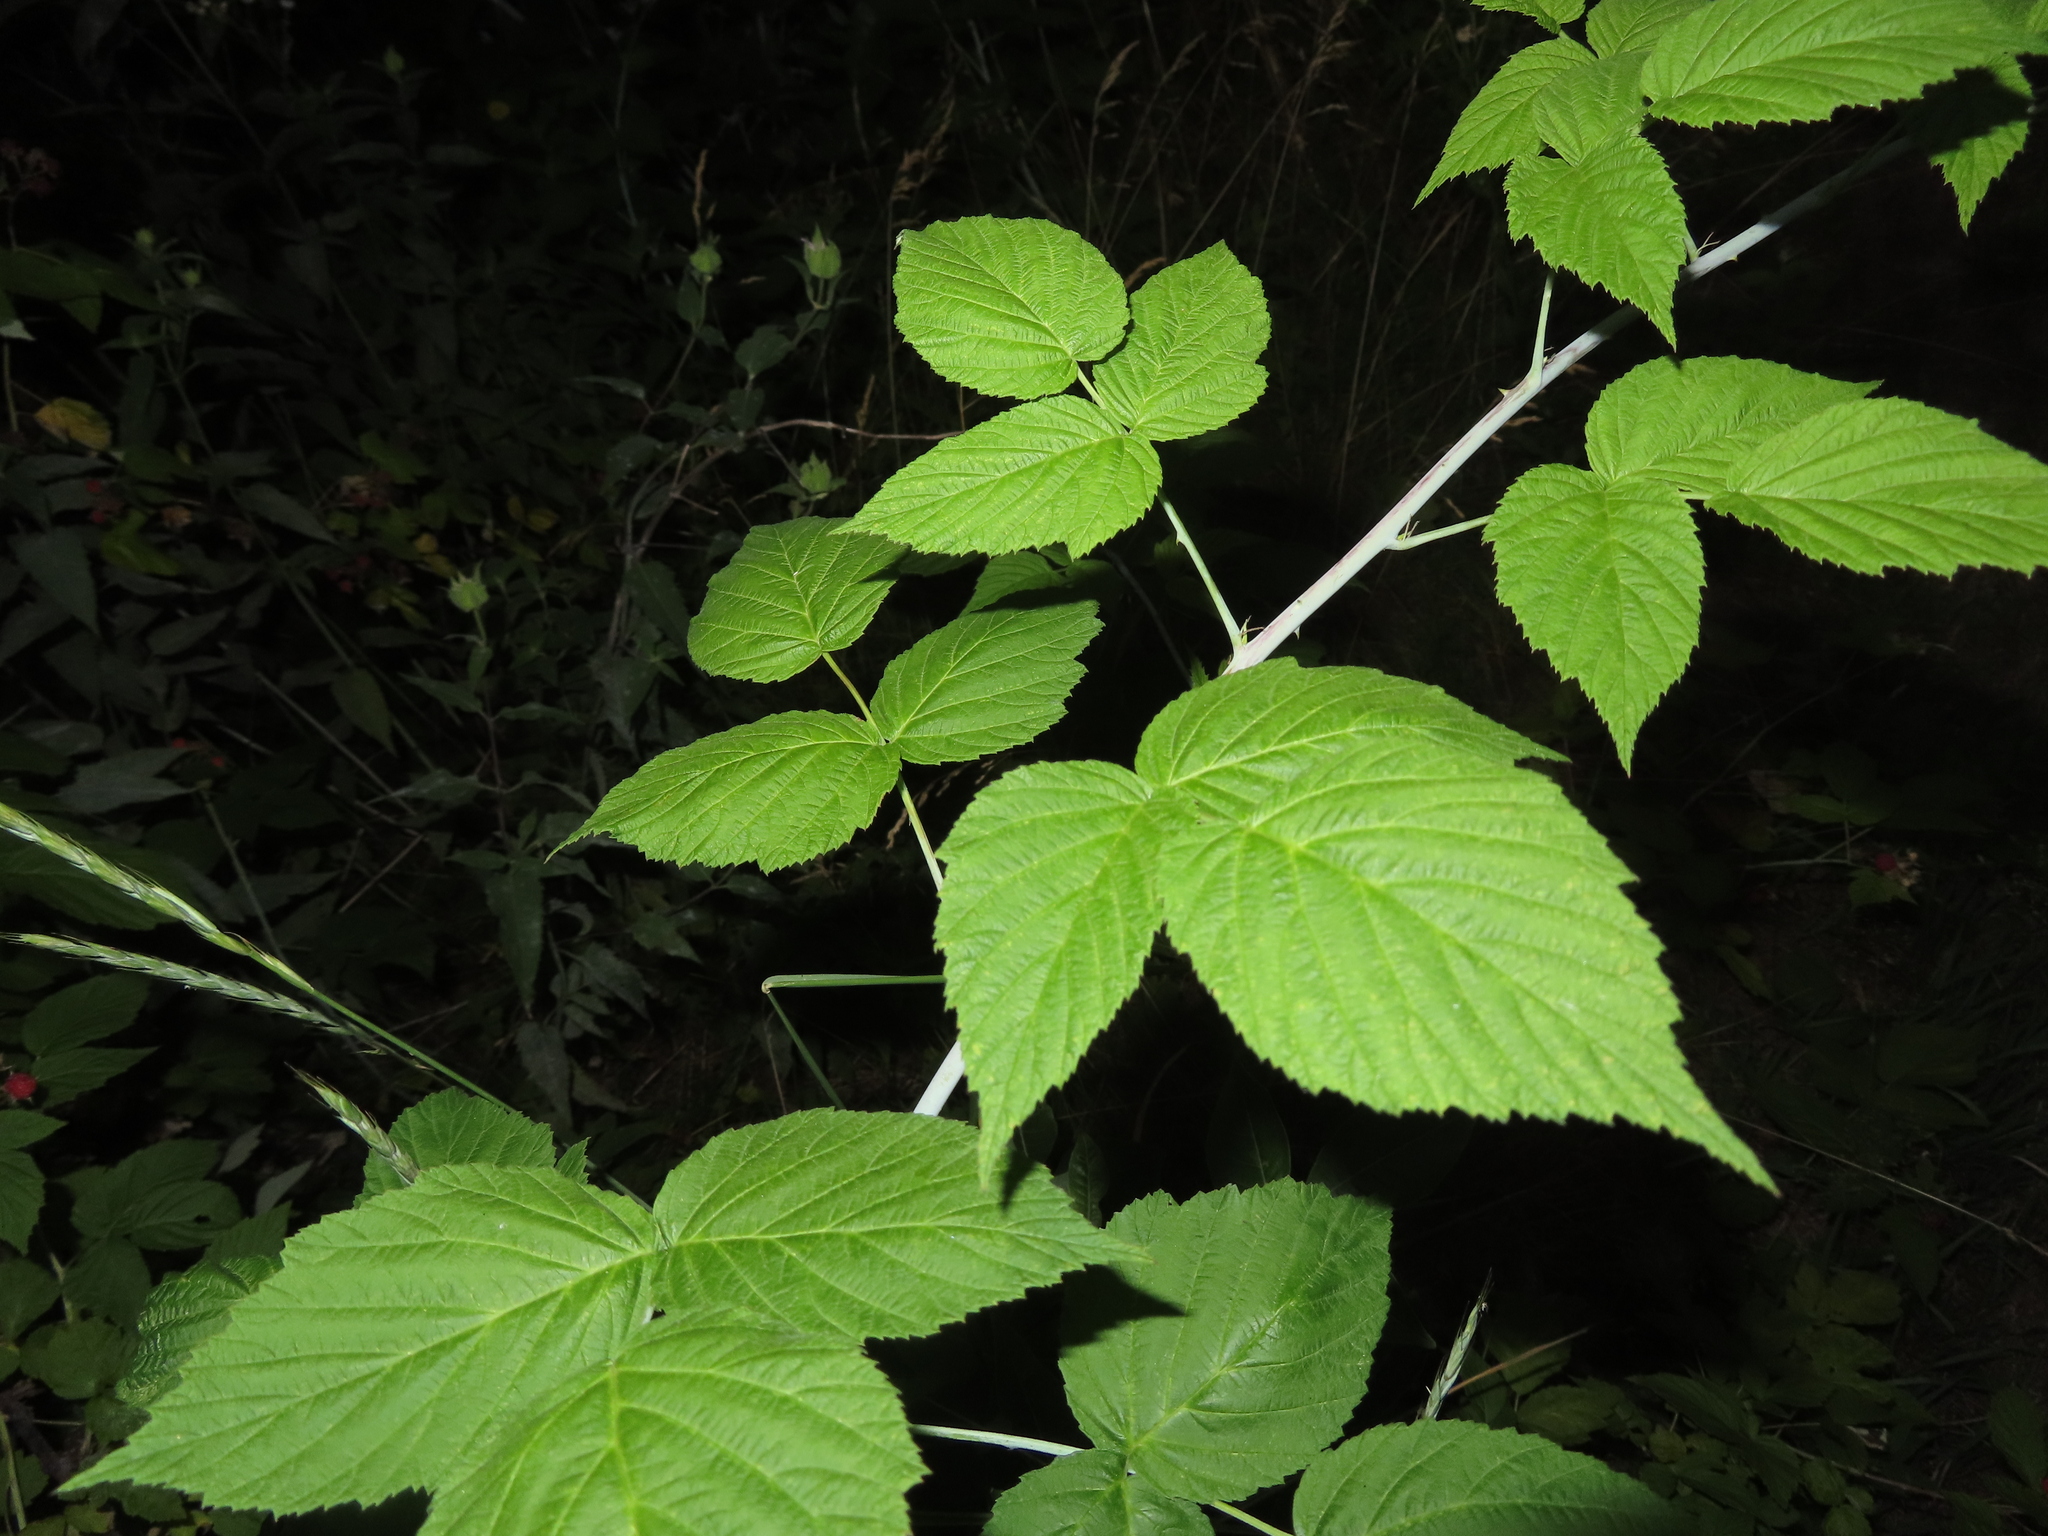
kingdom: Plantae
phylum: Tracheophyta
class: Magnoliopsida
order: Rosales
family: Rosaceae
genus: Rubus
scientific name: Rubus occidentalis
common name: Black raspberry
